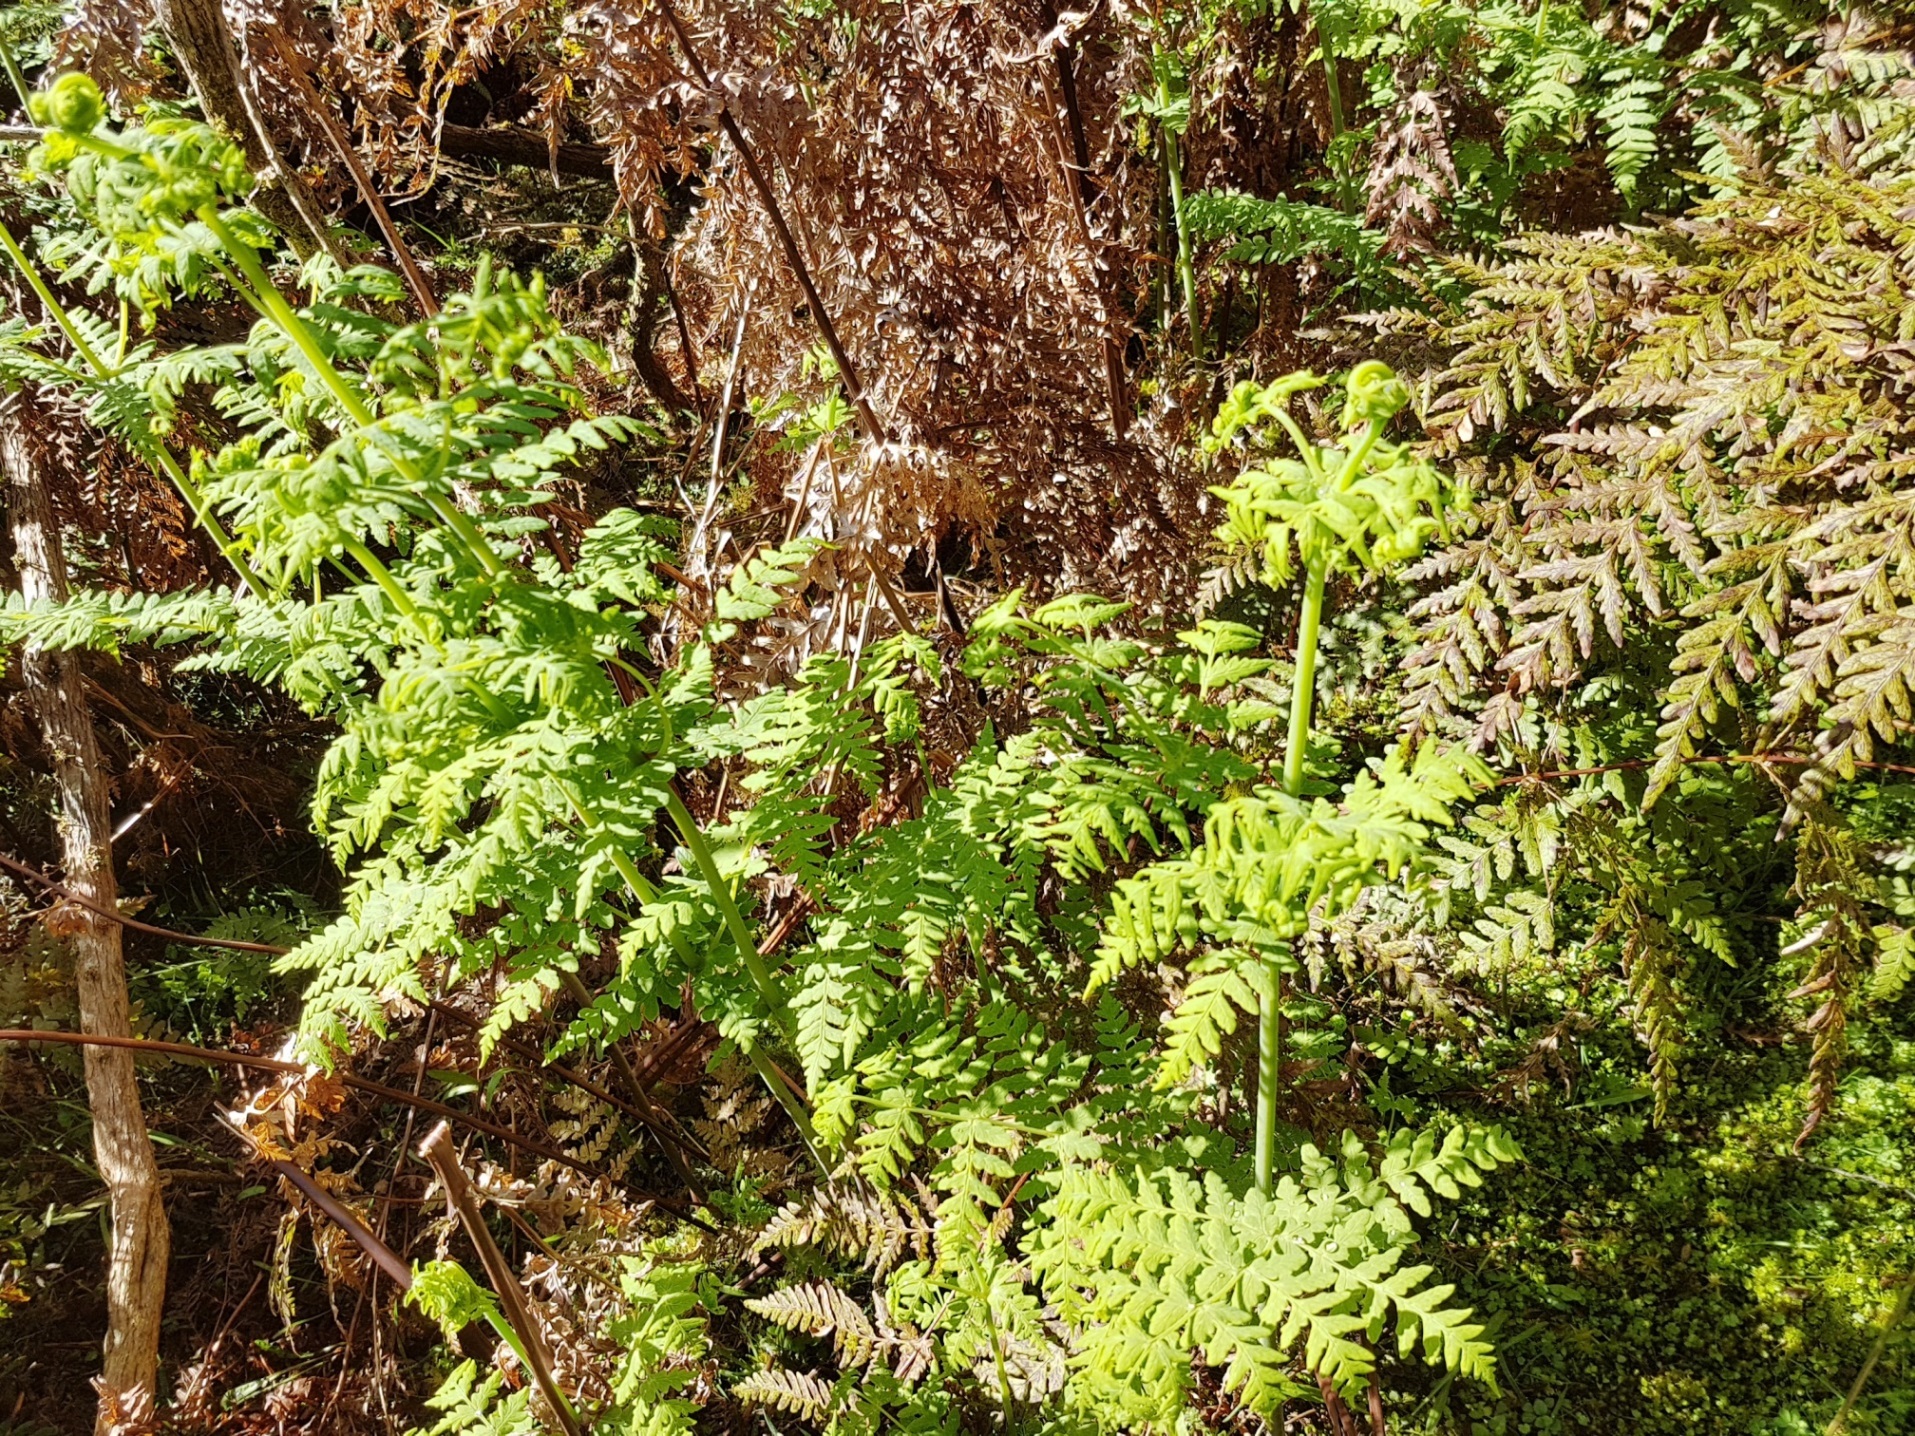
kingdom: Plantae
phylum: Tracheophyta
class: Polypodiopsida
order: Polypodiales
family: Dennstaedtiaceae
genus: Histiopteris
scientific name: Histiopteris incisa
